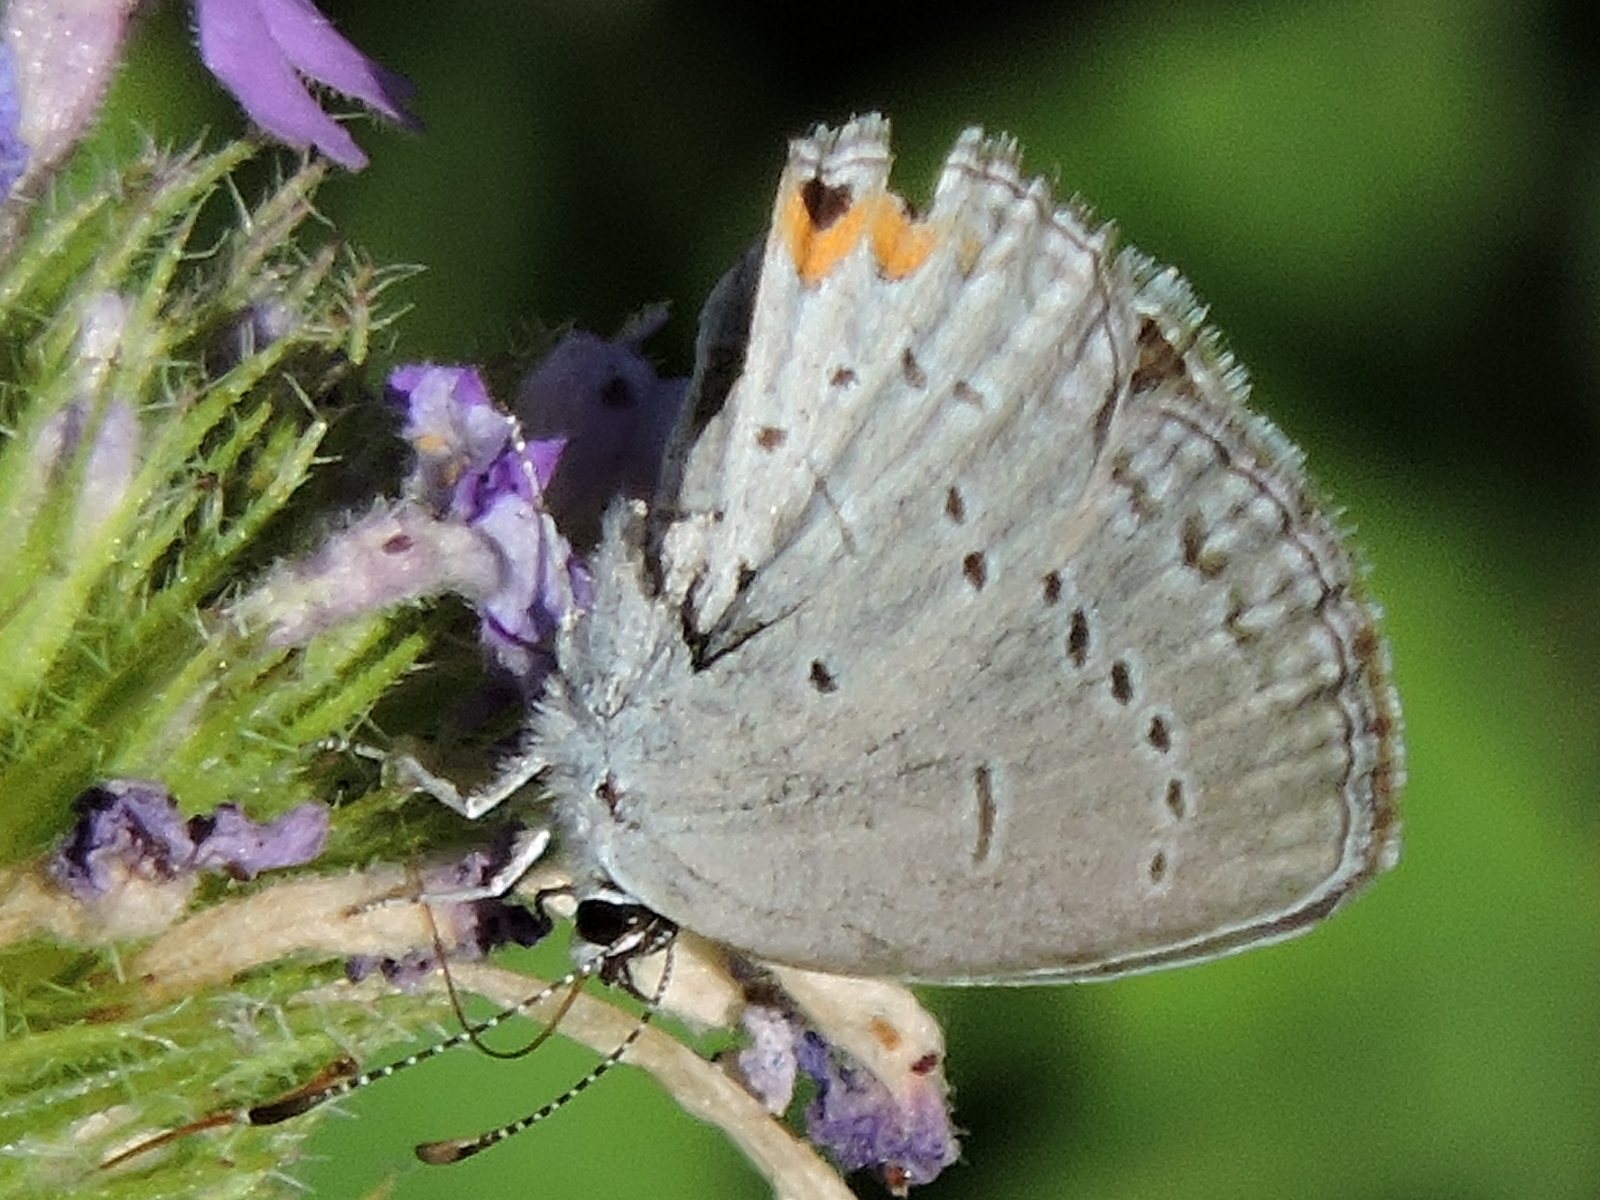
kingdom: Animalia
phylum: Arthropoda
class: Insecta
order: Lepidoptera
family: Lycaenidae
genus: Elkalyce
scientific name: Elkalyce comyntas
